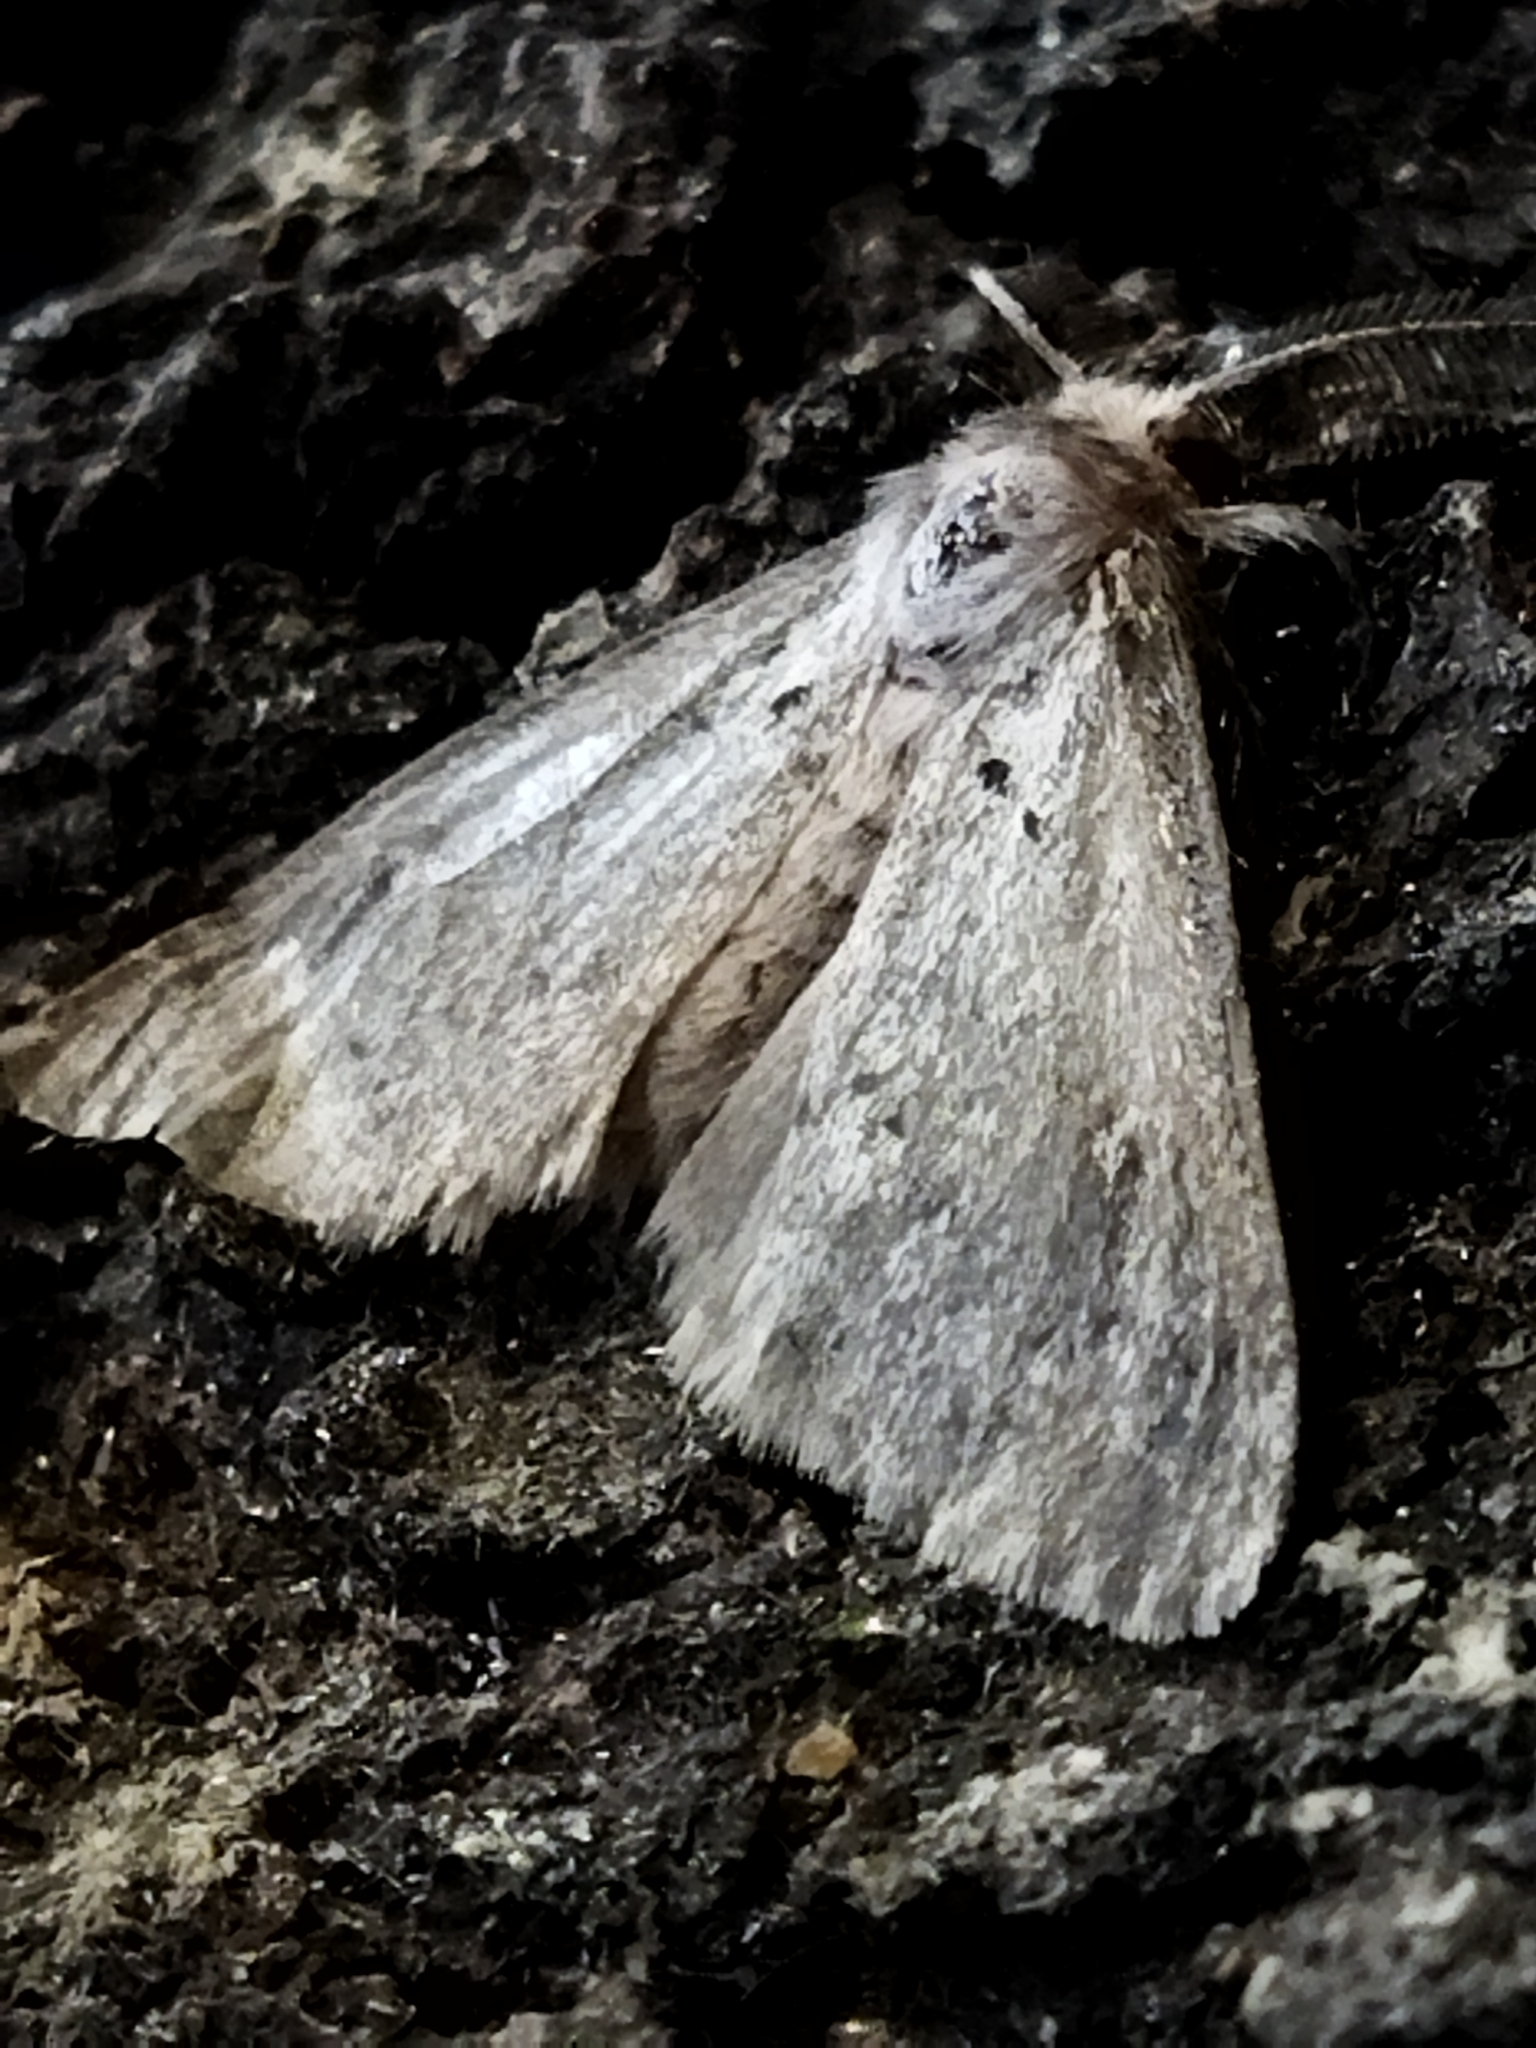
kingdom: Animalia
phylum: Arthropoda
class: Insecta
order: Lepidoptera
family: Erebidae
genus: Ocneria
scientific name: Ocneria
